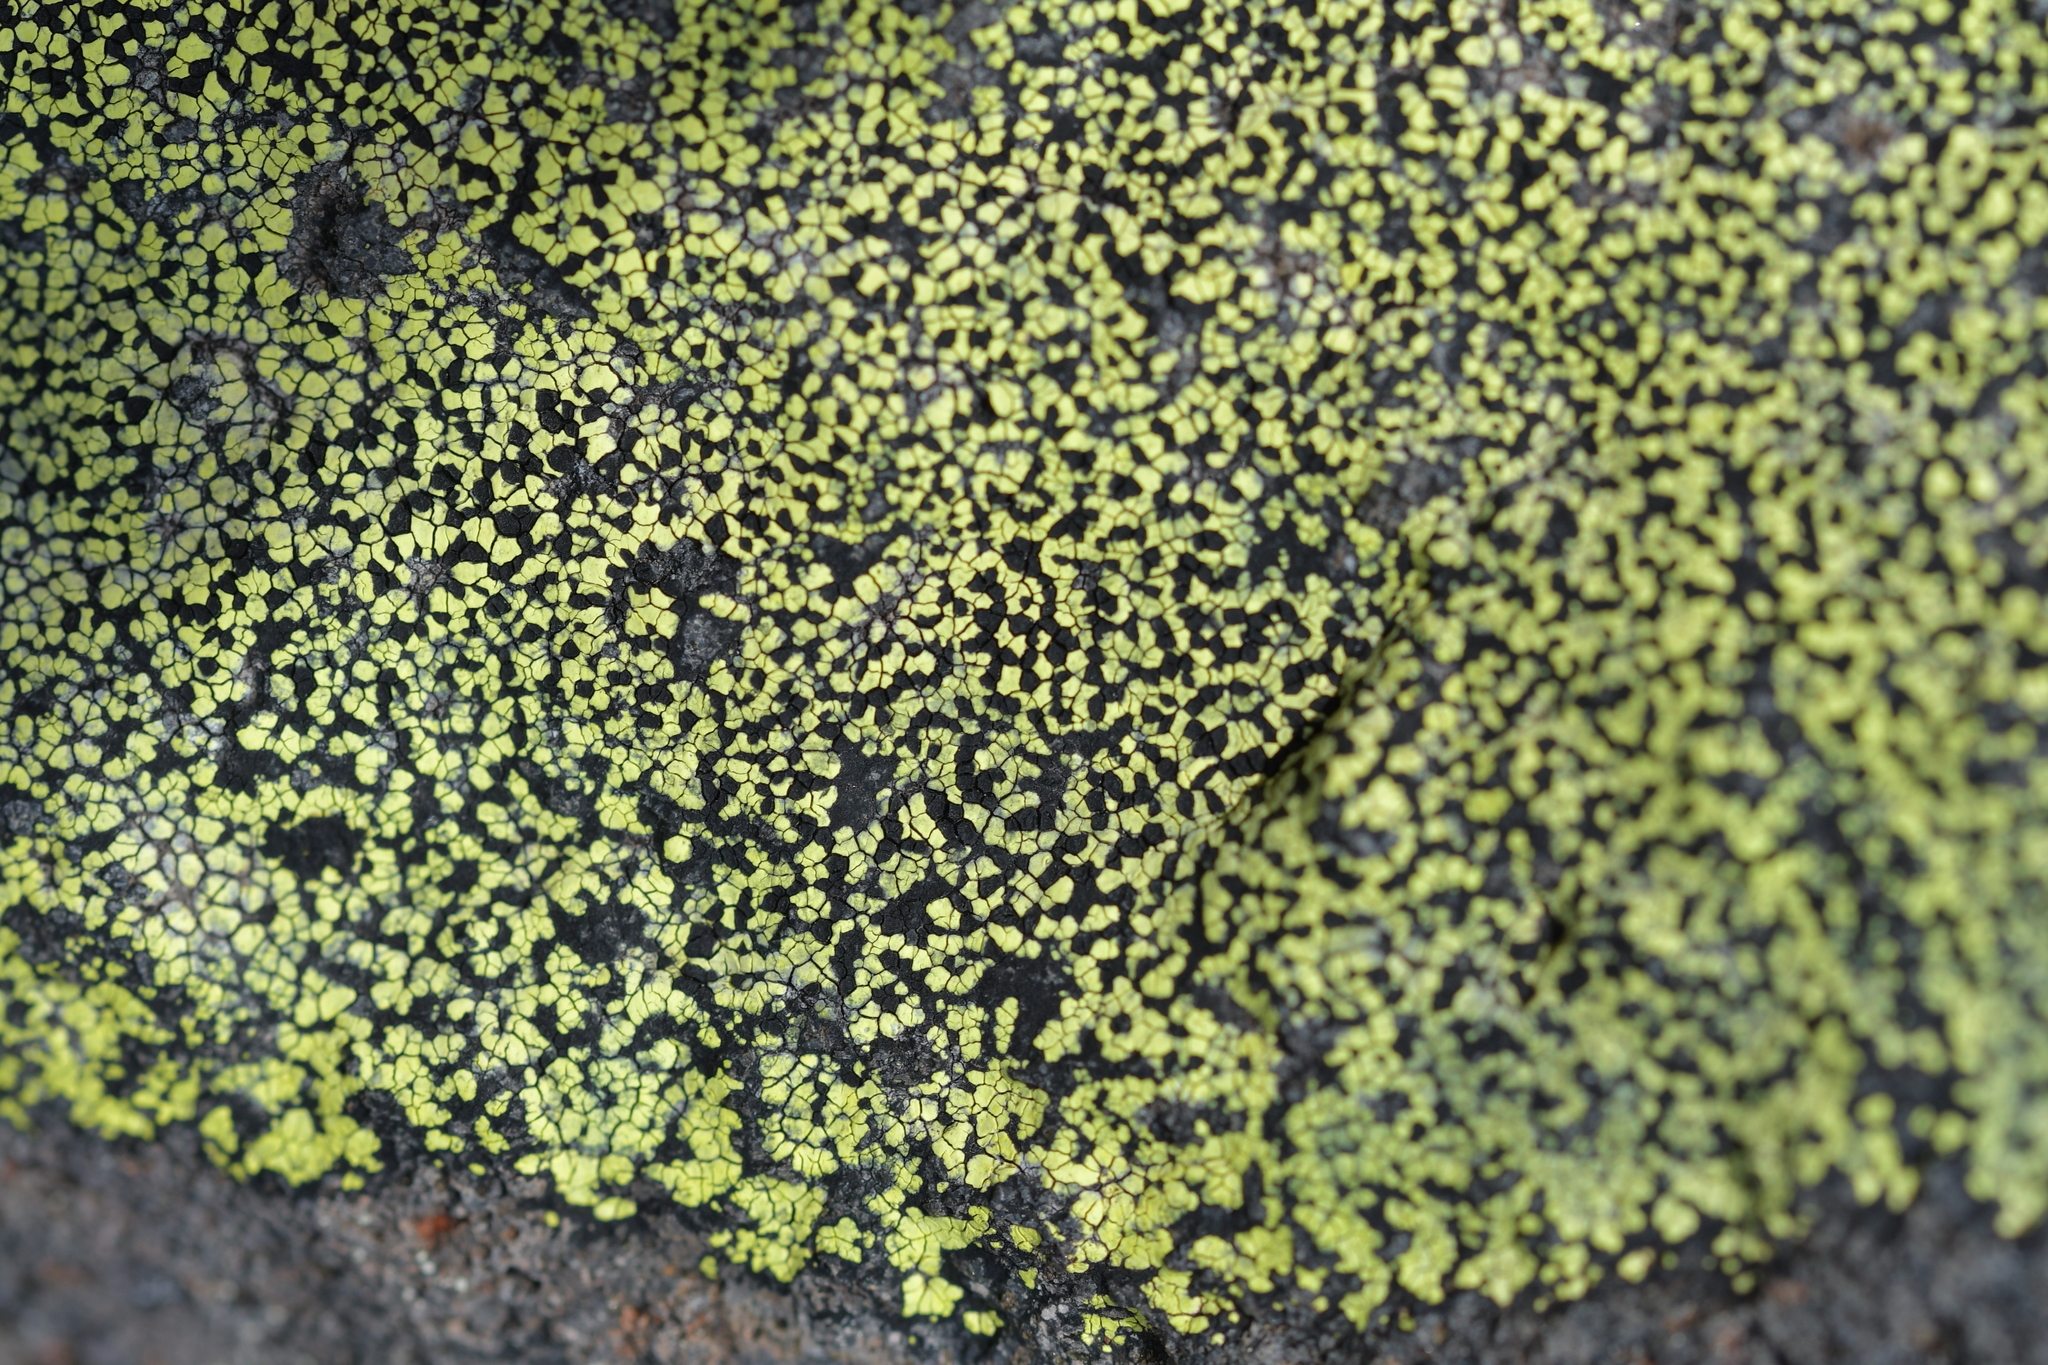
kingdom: Fungi
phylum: Ascomycota
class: Lecanoromycetes
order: Rhizocarpales
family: Rhizocarpaceae
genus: Rhizocarpon
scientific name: Rhizocarpon geographicum
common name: Yellow map lichen
